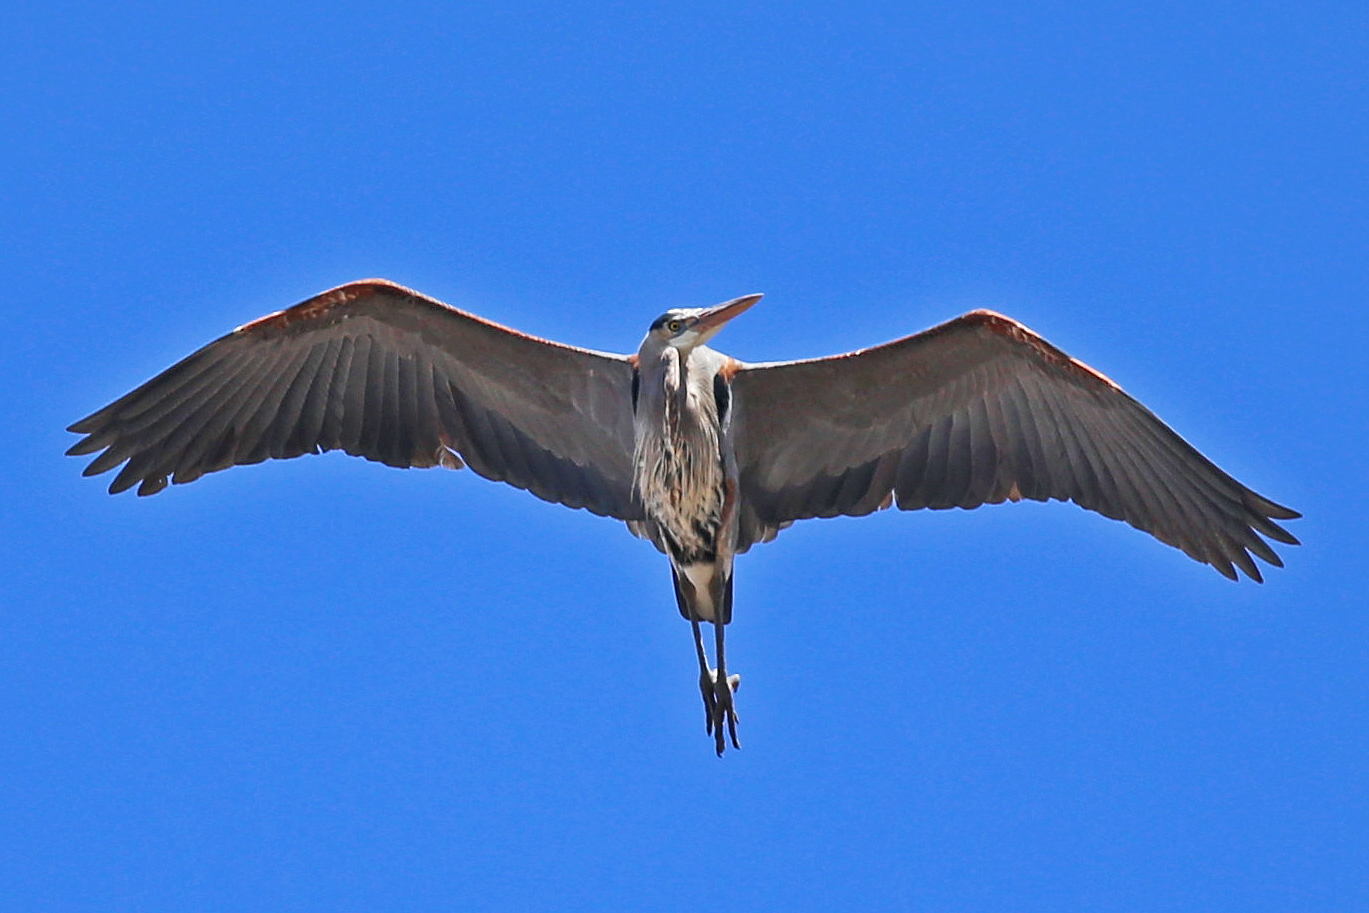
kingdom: Animalia
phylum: Chordata
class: Aves
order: Pelecaniformes
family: Ardeidae
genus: Ardea
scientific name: Ardea herodias
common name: Great blue heron
